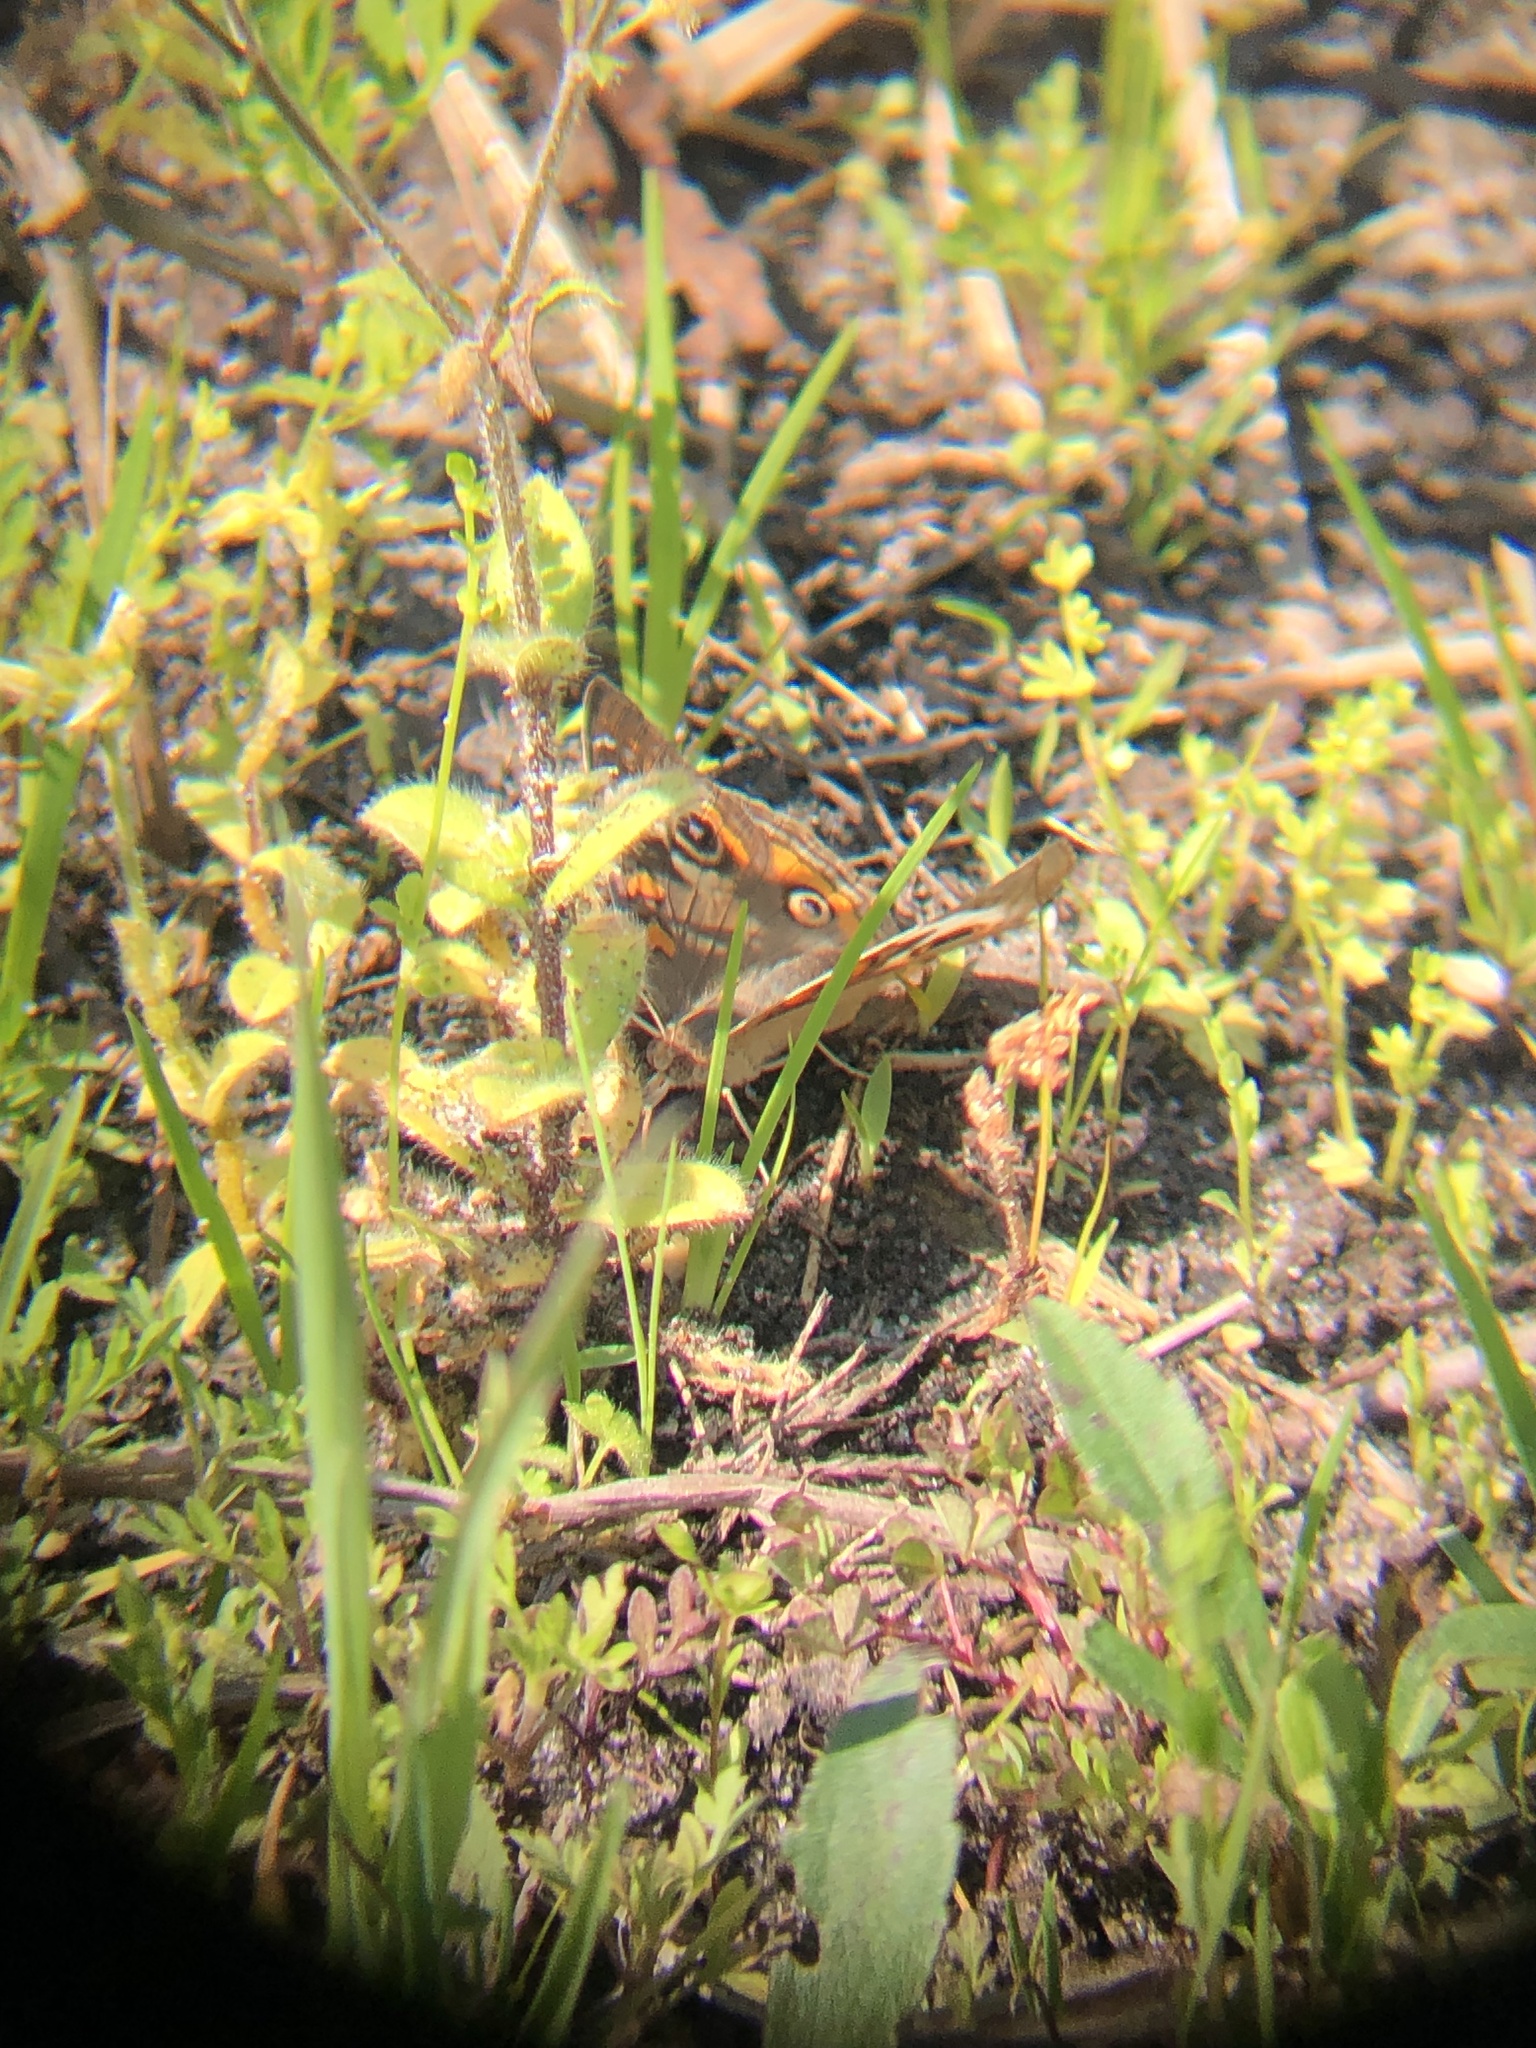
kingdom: Animalia
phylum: Arthropoda
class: Insecta
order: Lepidoptera
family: Nymphalidae
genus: Junonia
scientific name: Junonia coenia
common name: Common buckeye
